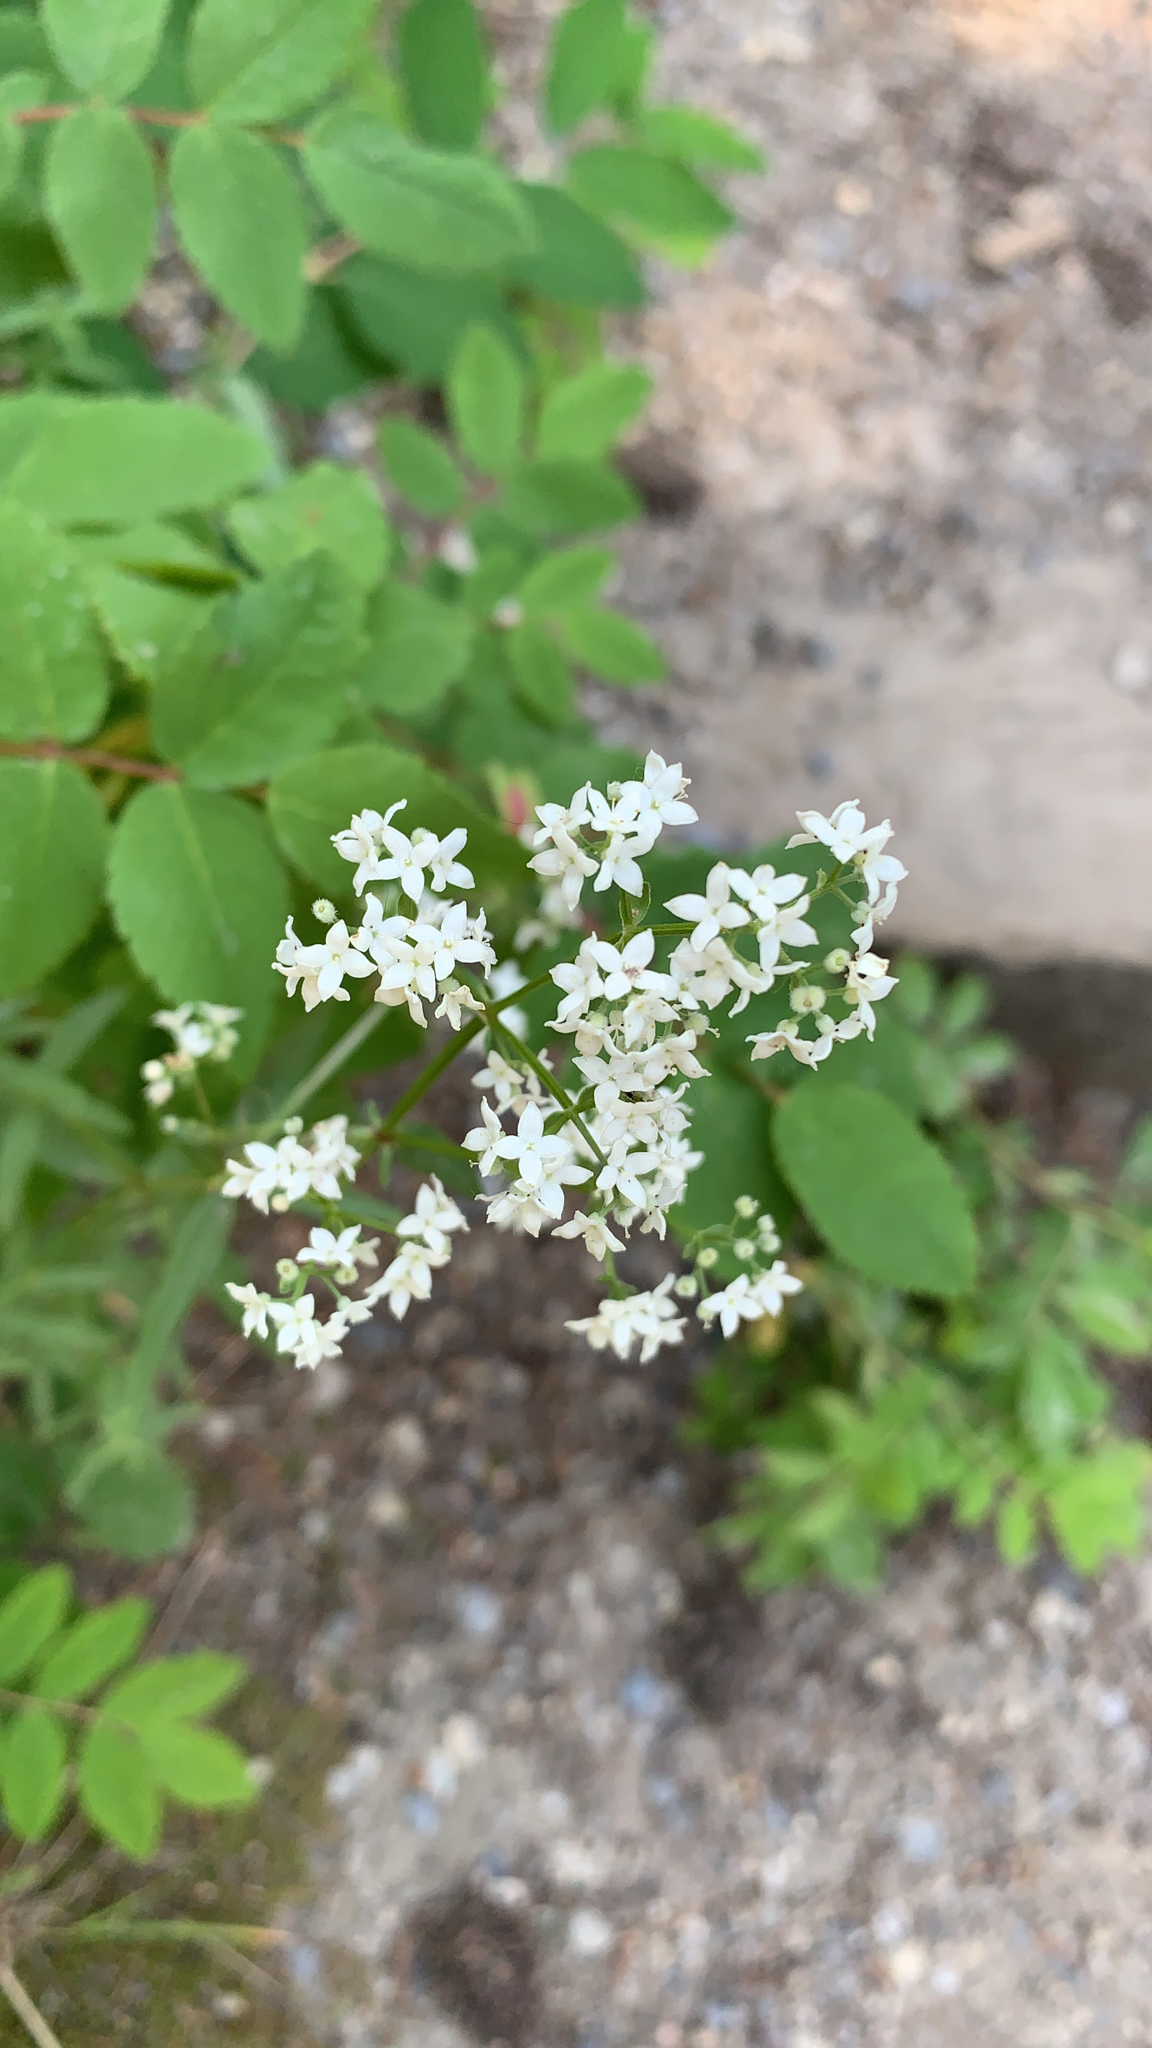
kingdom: Plantae
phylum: Tracheophyta
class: Magnoliopsida
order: Gentianales
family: Rubiaceae
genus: Galium
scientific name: Galium boreale
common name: Northern bedstraw
